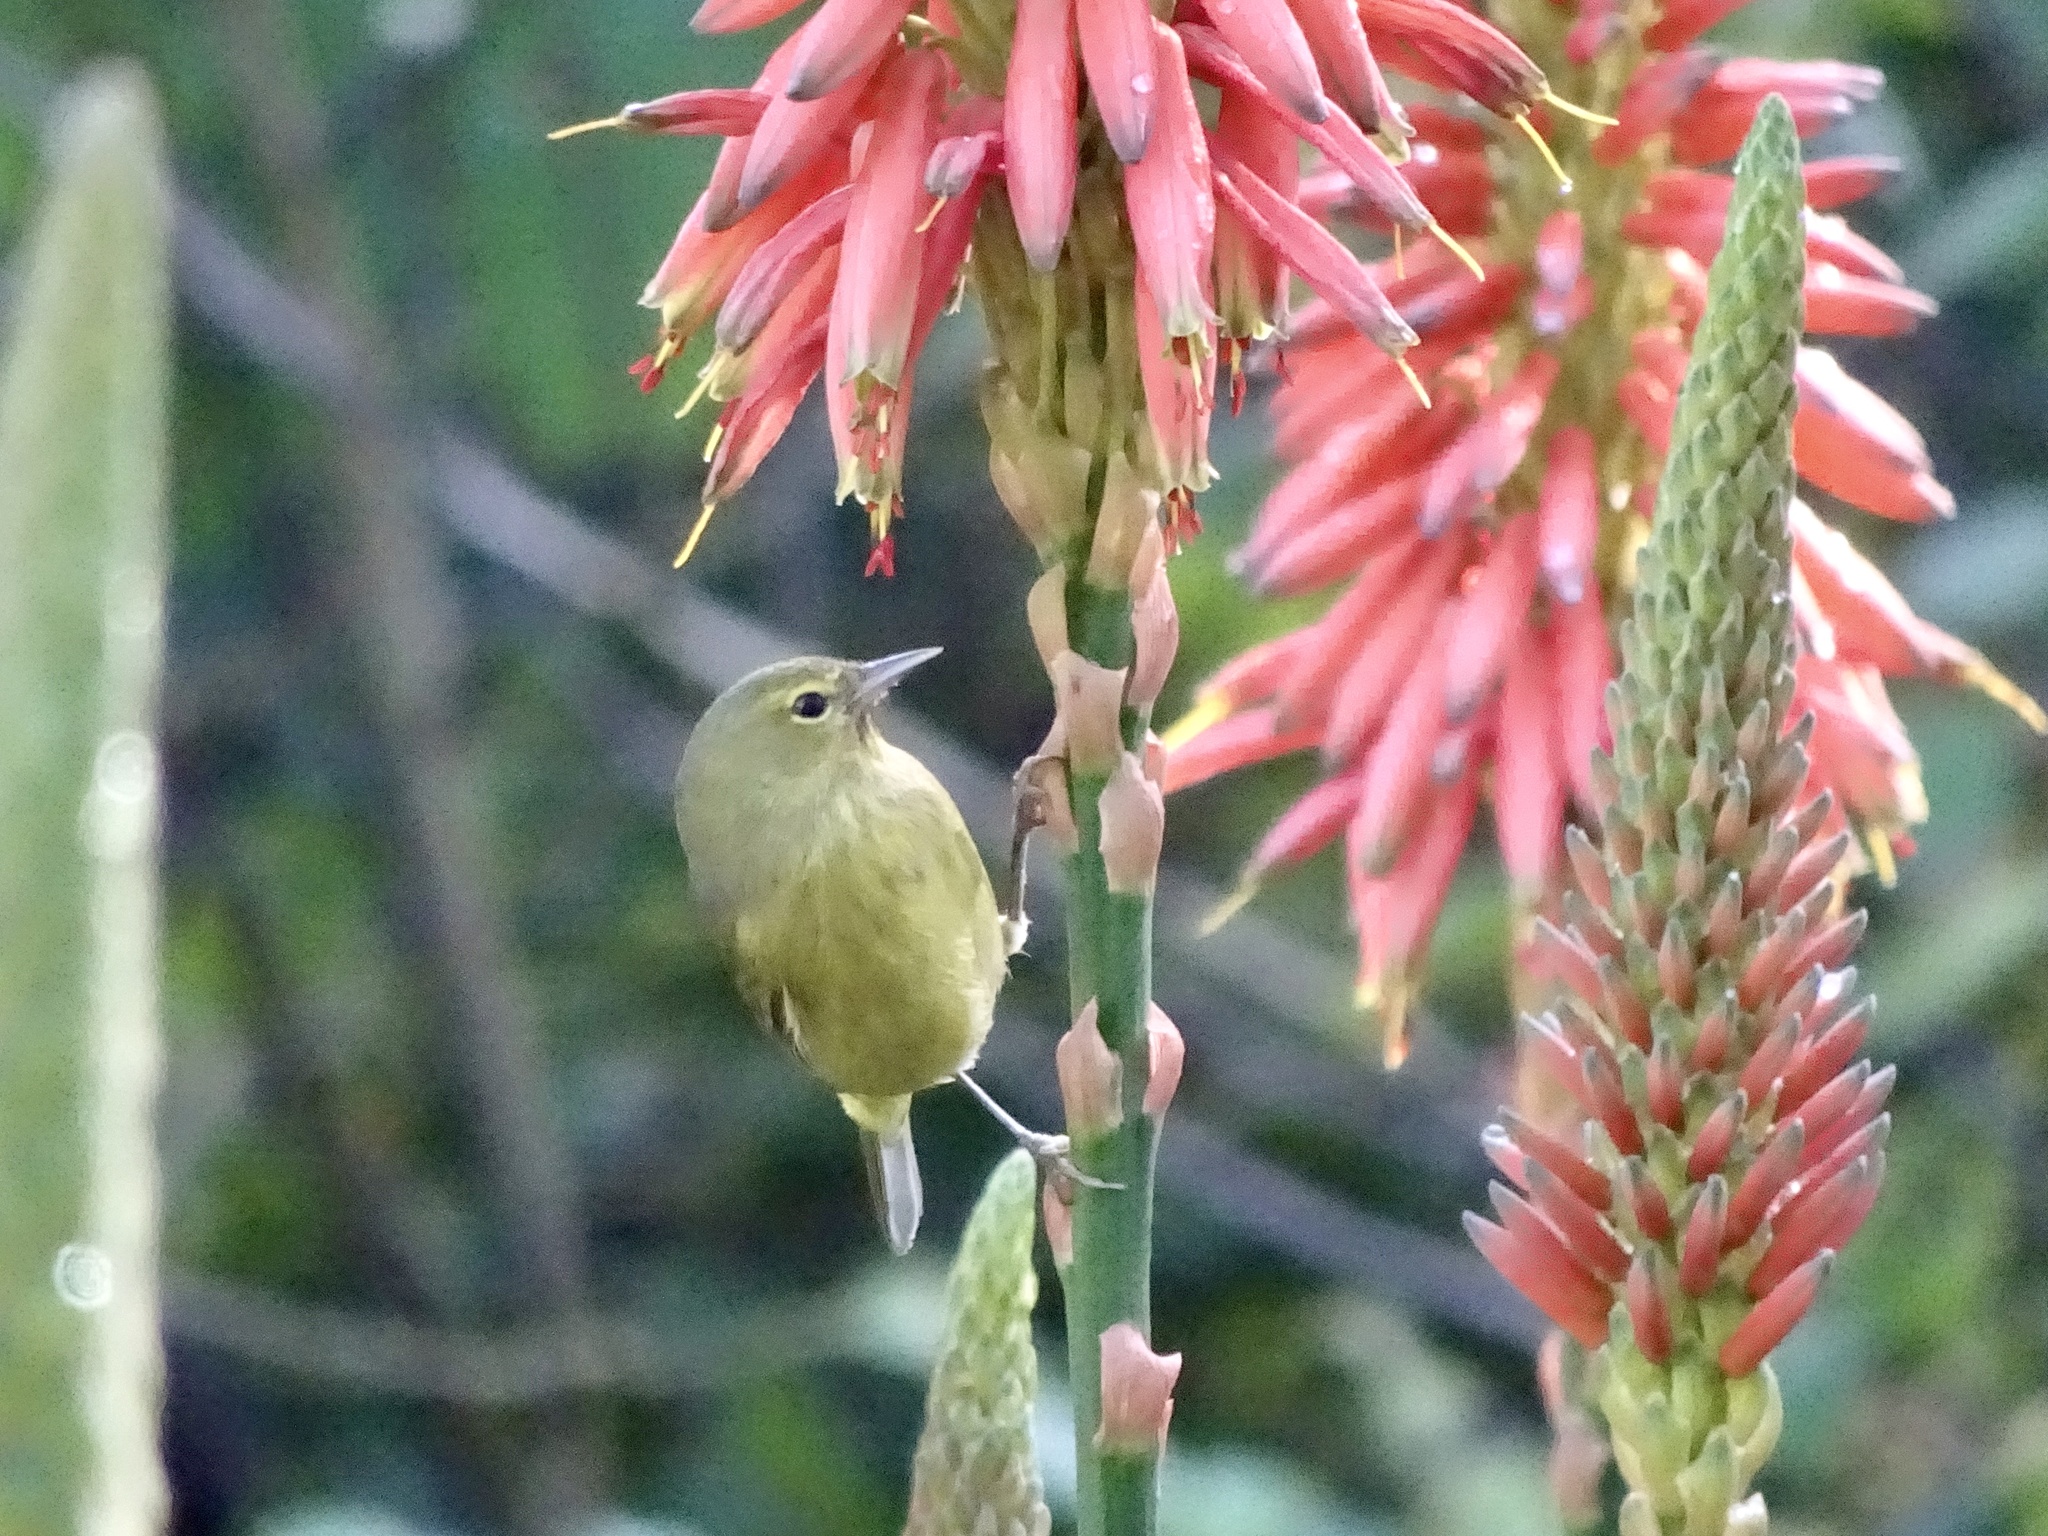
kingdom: Animalia
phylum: Chordata
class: Aves
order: Passeriformes
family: Parulidae
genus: Leiothlypis
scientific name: Leiothlypis celata
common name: Orange-crowned warbler
